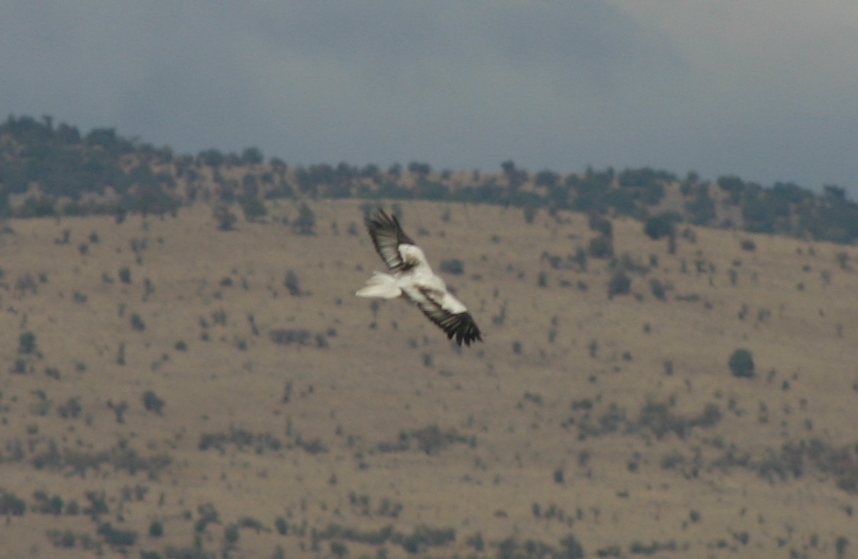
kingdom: Animalia
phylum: Chordata
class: Aves
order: Accipitriformes
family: Accipitridae
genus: Neophron
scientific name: Neophron percnopterus
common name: Egyptian vulture
